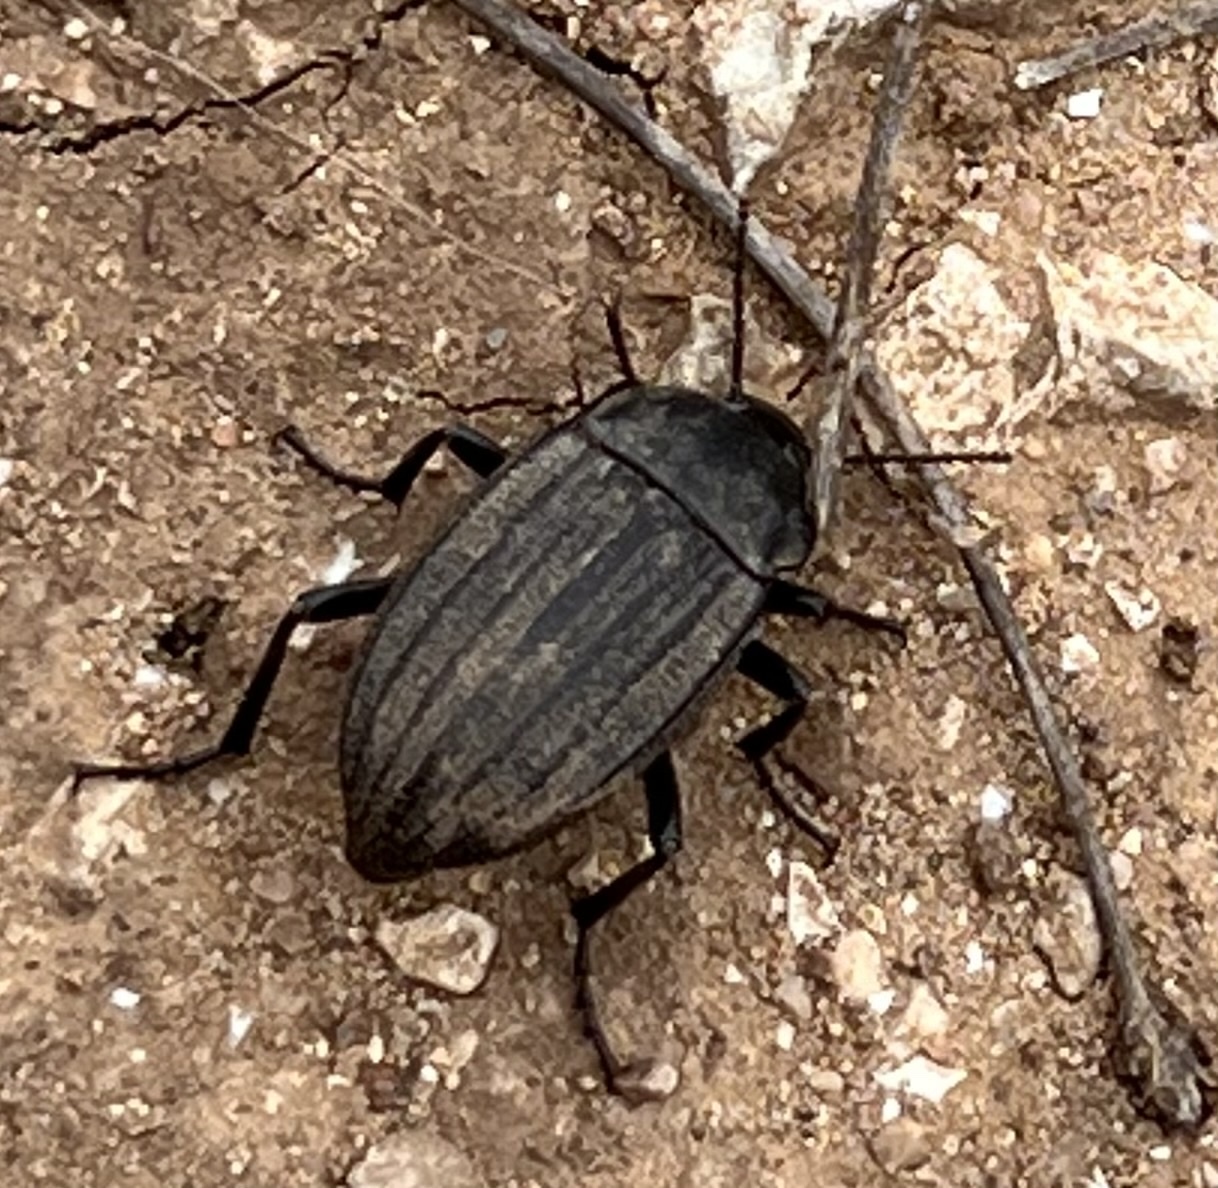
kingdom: Animalia
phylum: Arthropoda
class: Insecta
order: Coleoptera
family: Tenebrionidae
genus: Eleodes
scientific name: Eleodes tricostata
